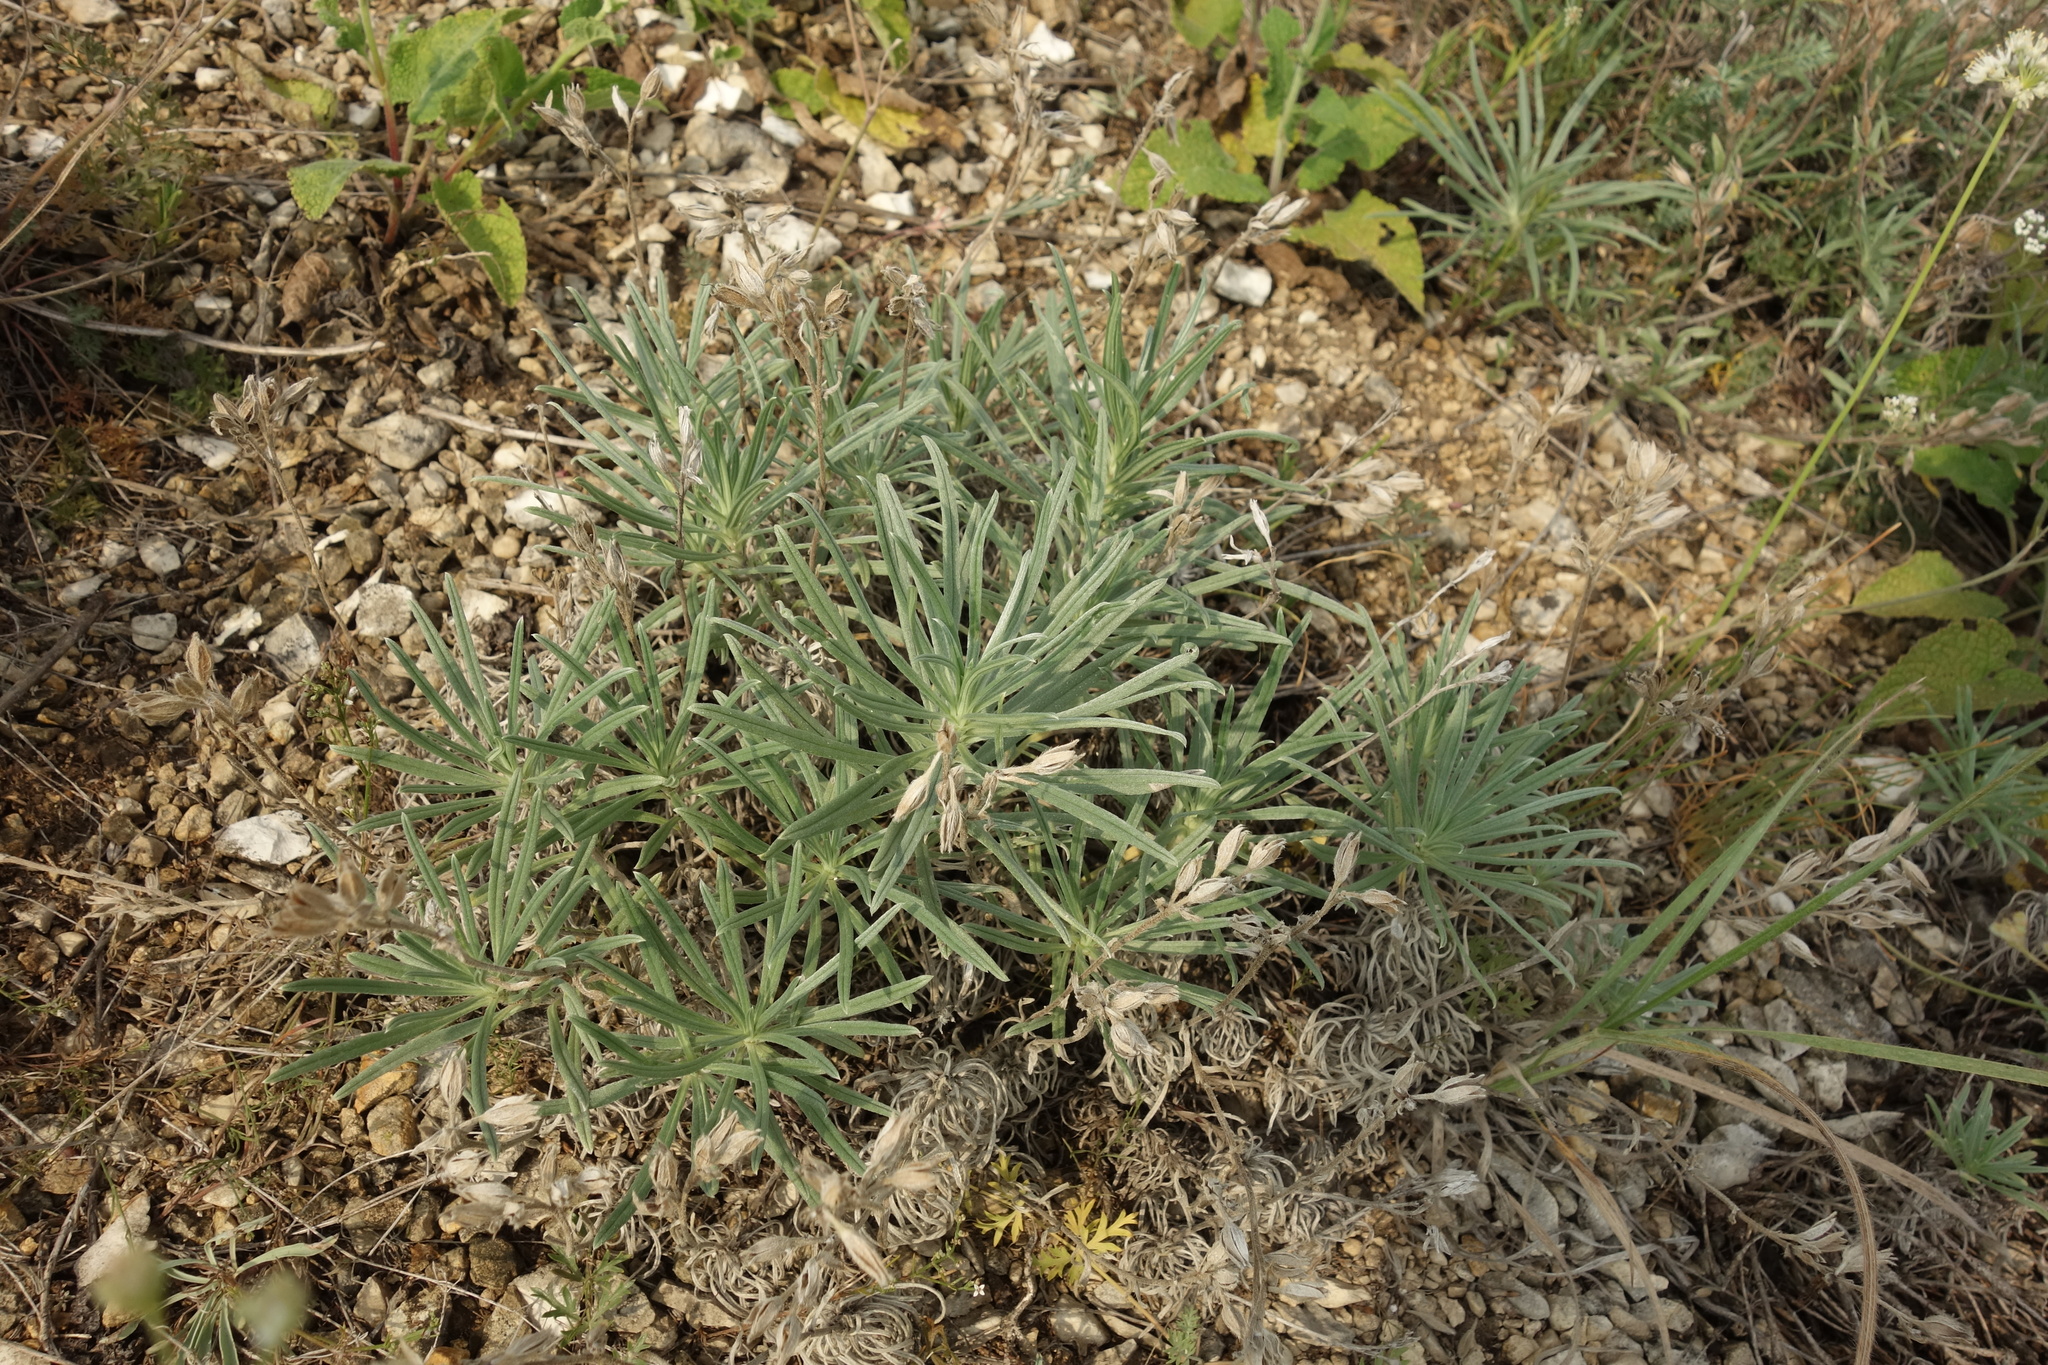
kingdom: Plantae
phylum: Tracheophyta
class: Magnoliopsida
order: Boraginales
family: Boraginaceae
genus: Onosma
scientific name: Onosma simplicissima
